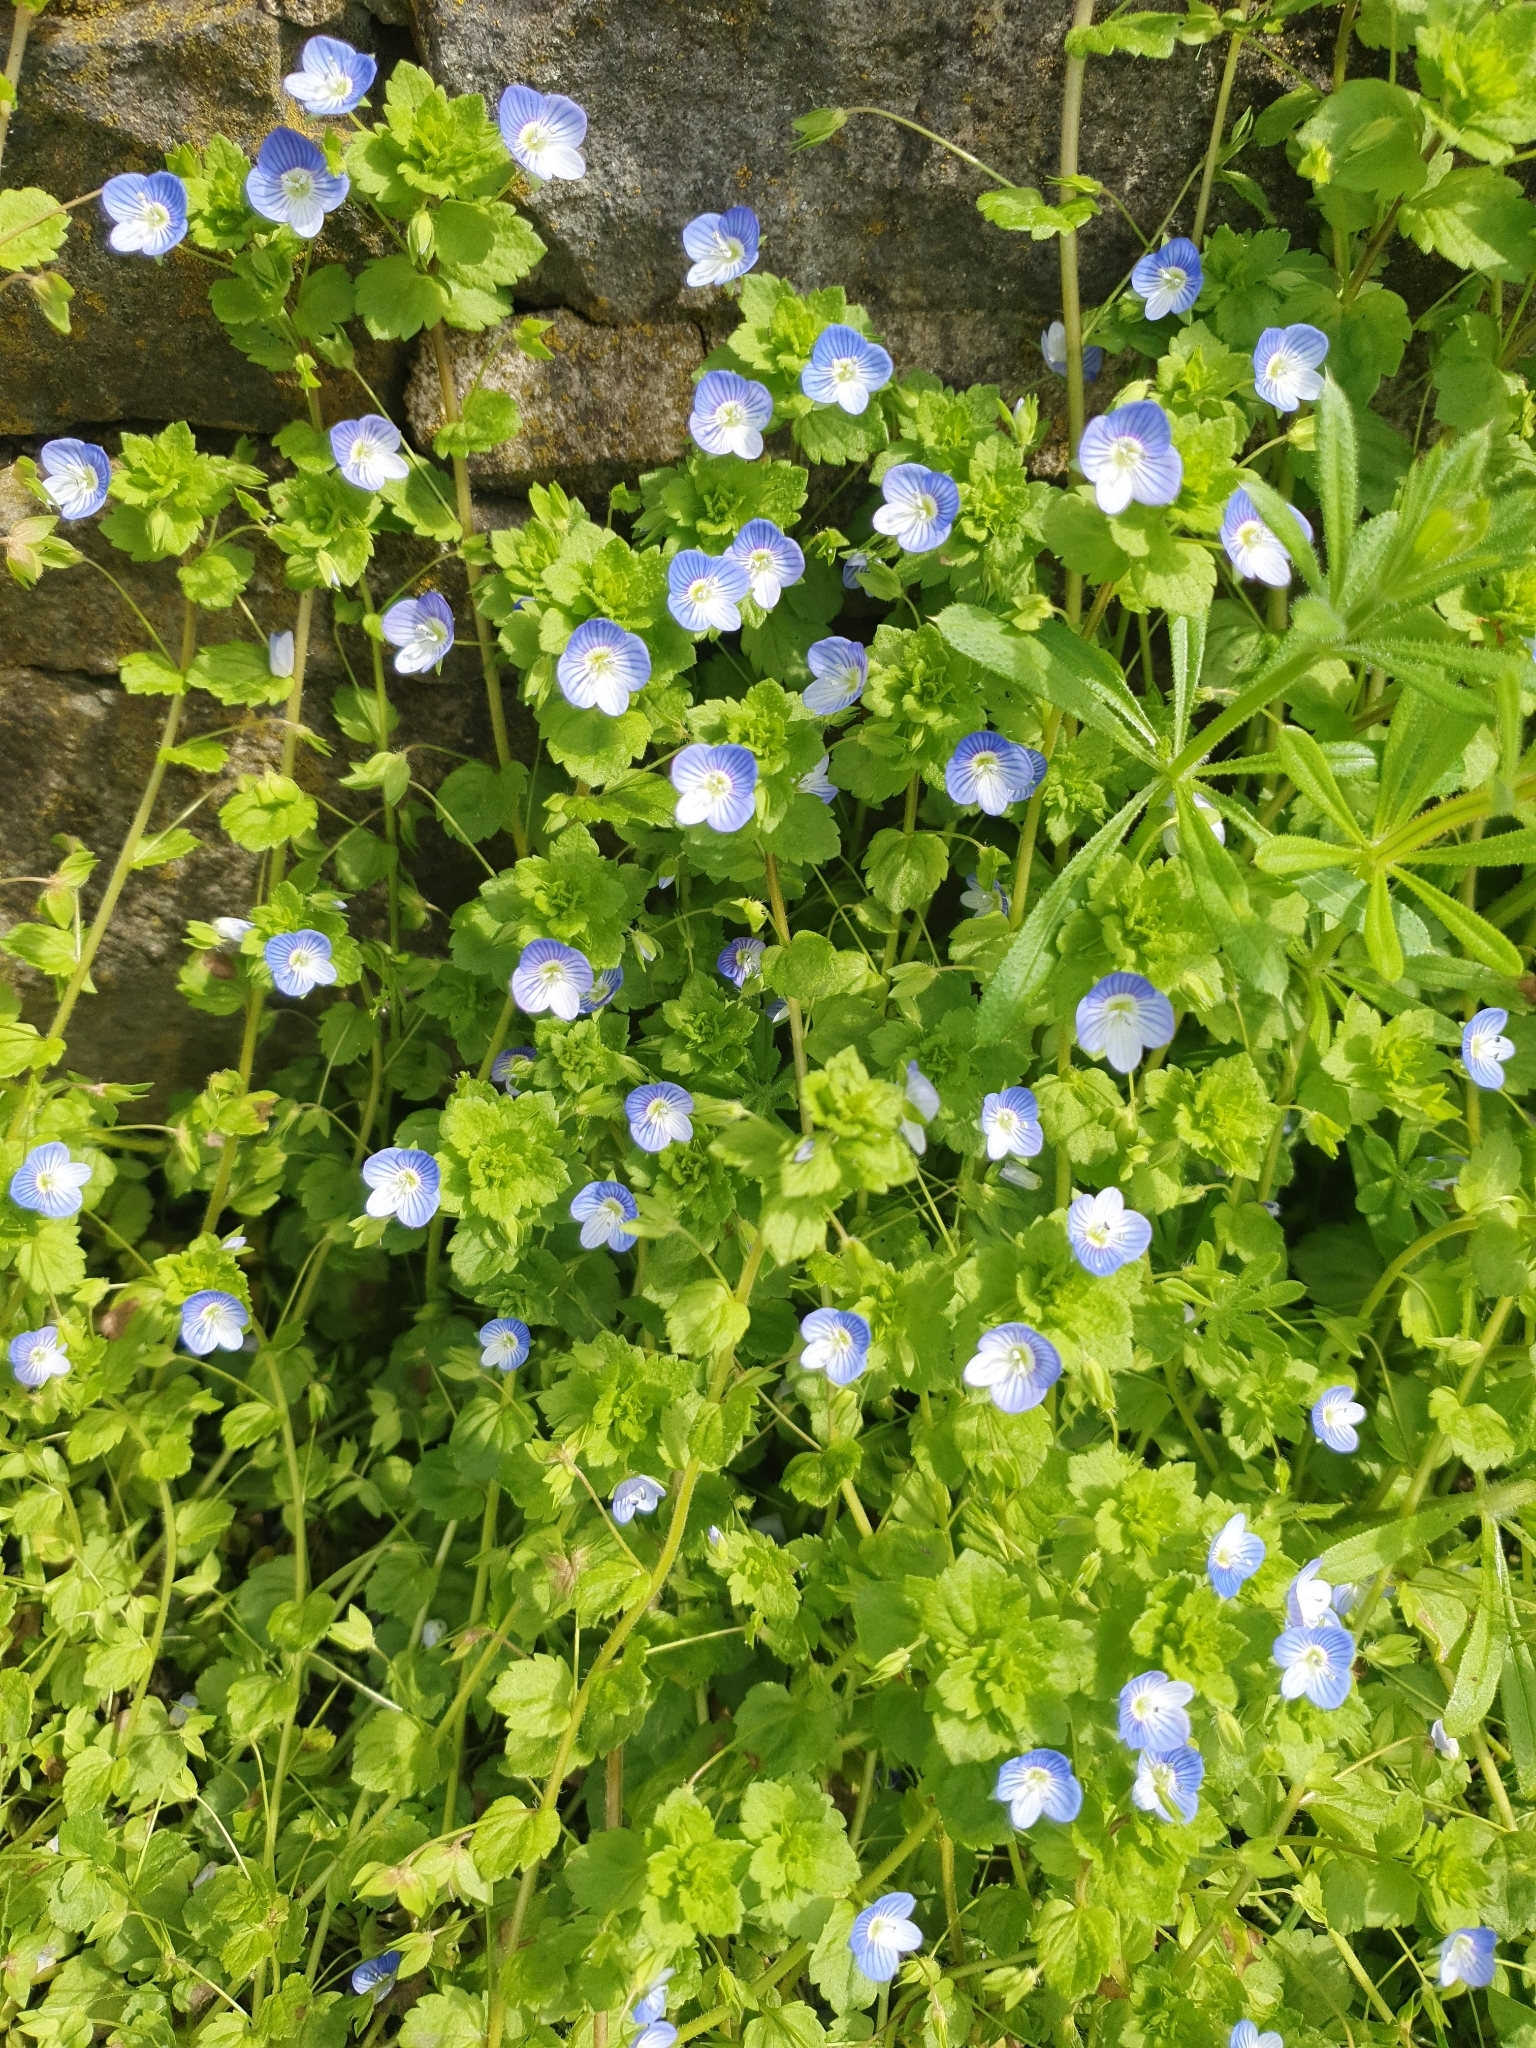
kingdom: Plantae
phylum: Tracheophyta
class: Magnoliopsida
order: Lamiales
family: Plantaginaceae
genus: Veronica
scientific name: Veronica persica
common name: Common field-speedwell
